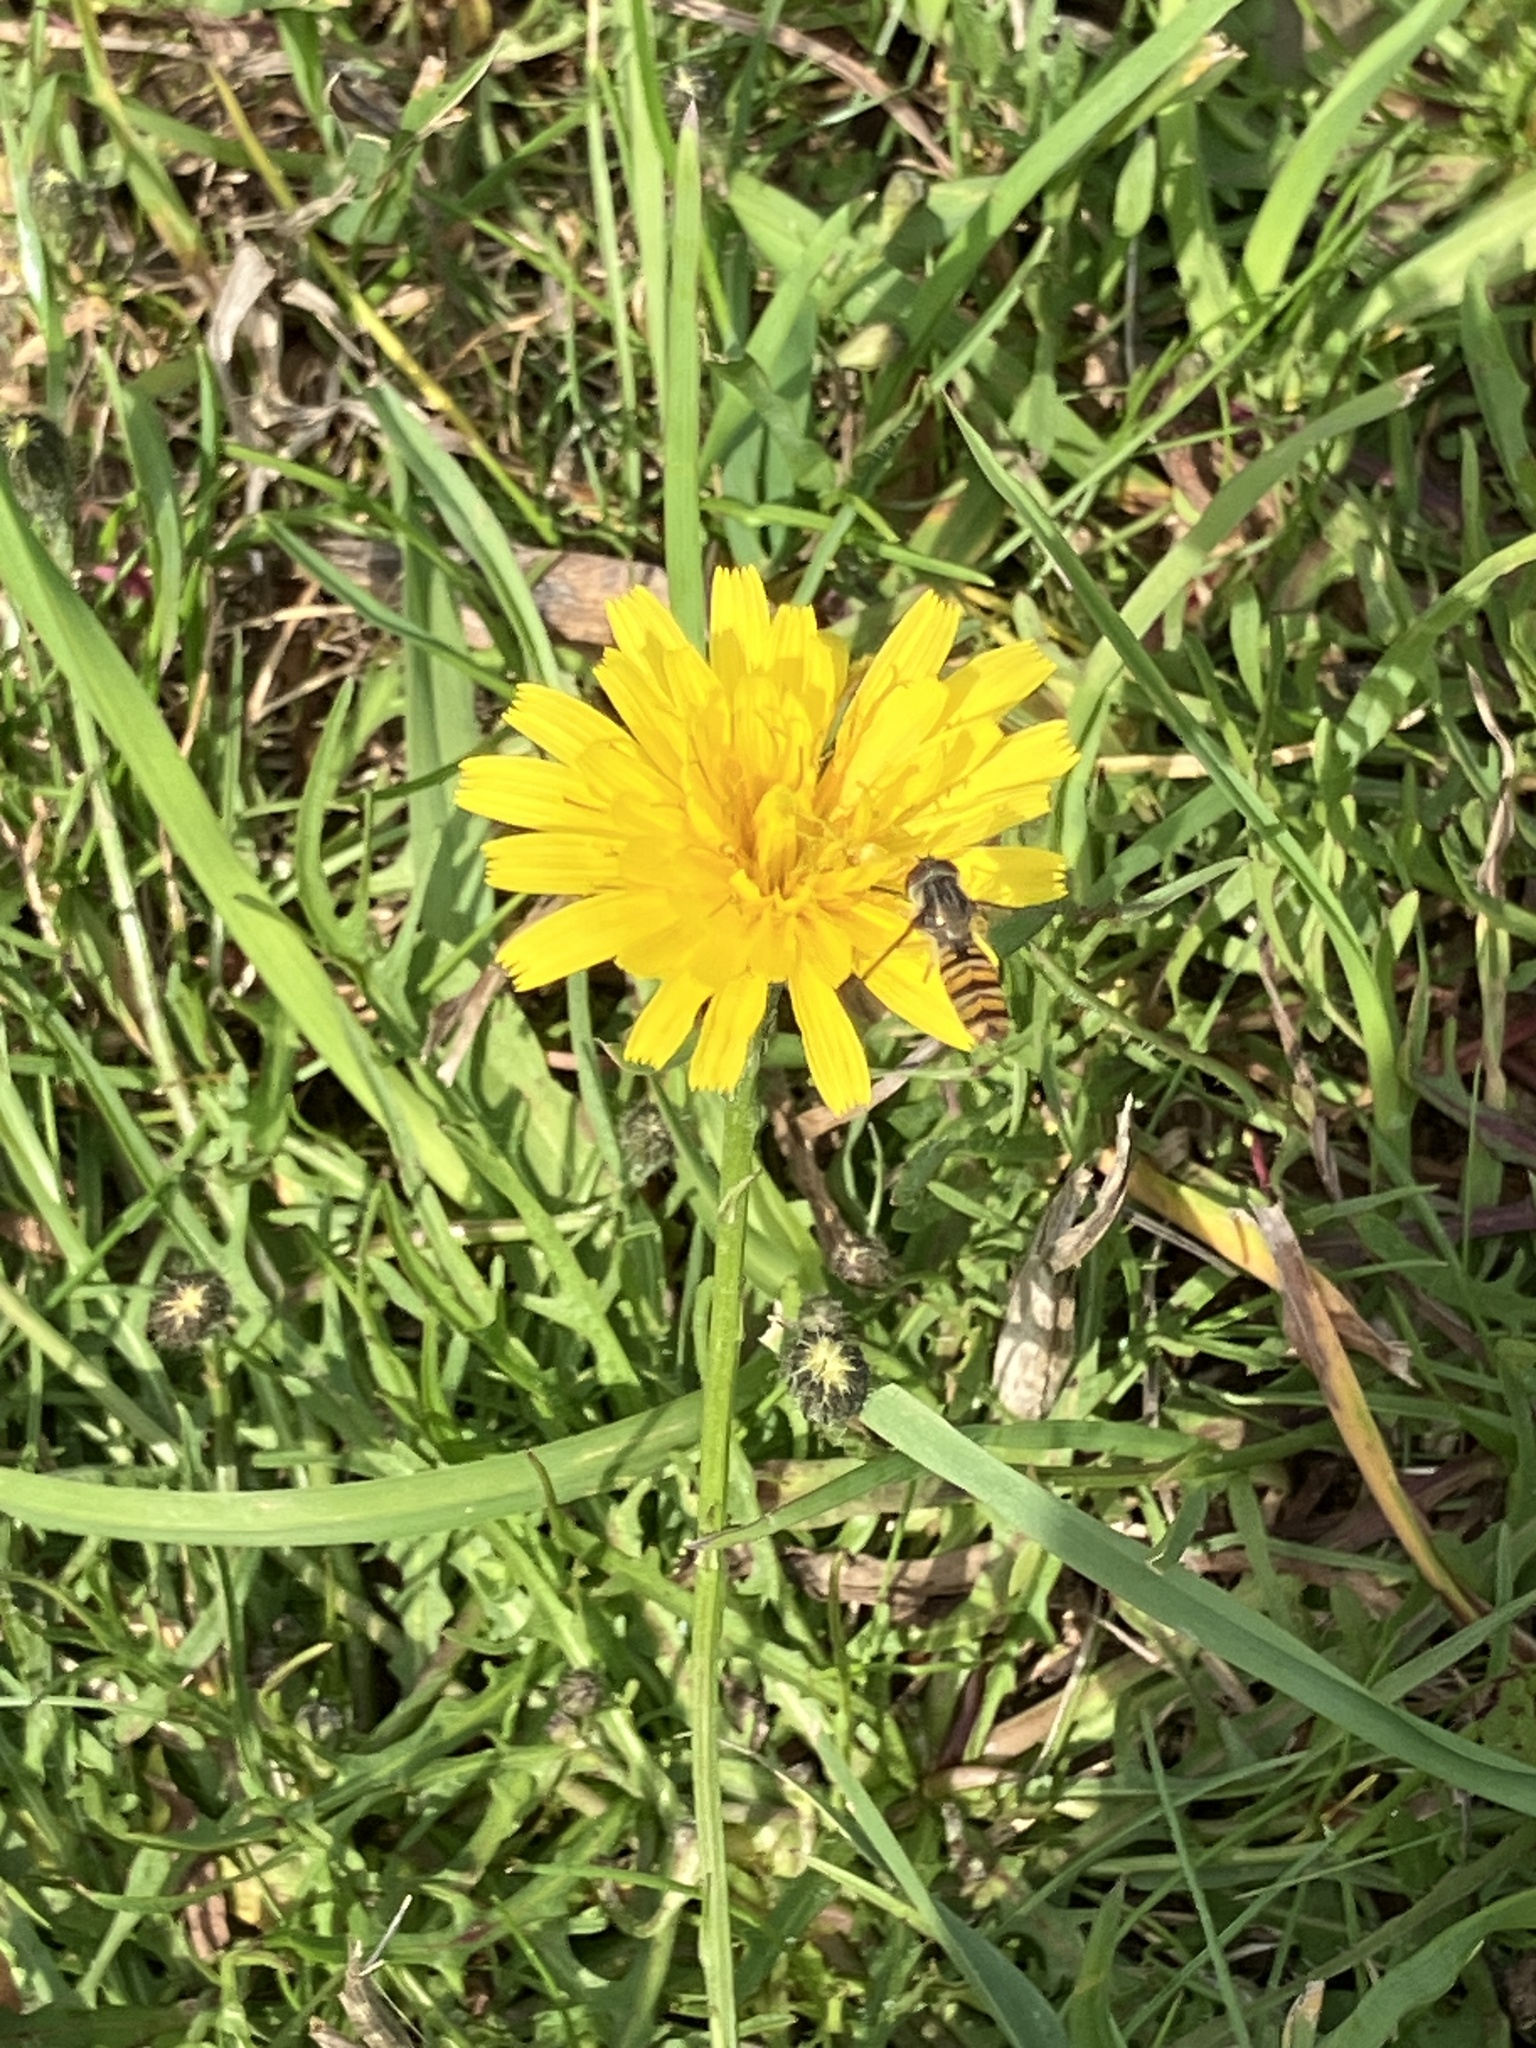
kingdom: Animalia
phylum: Arthropoda
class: Insecta
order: Diptera
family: Syrphidae
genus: Episyrphus
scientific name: Episyrphus balteatus
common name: Marmalade hoverfly
